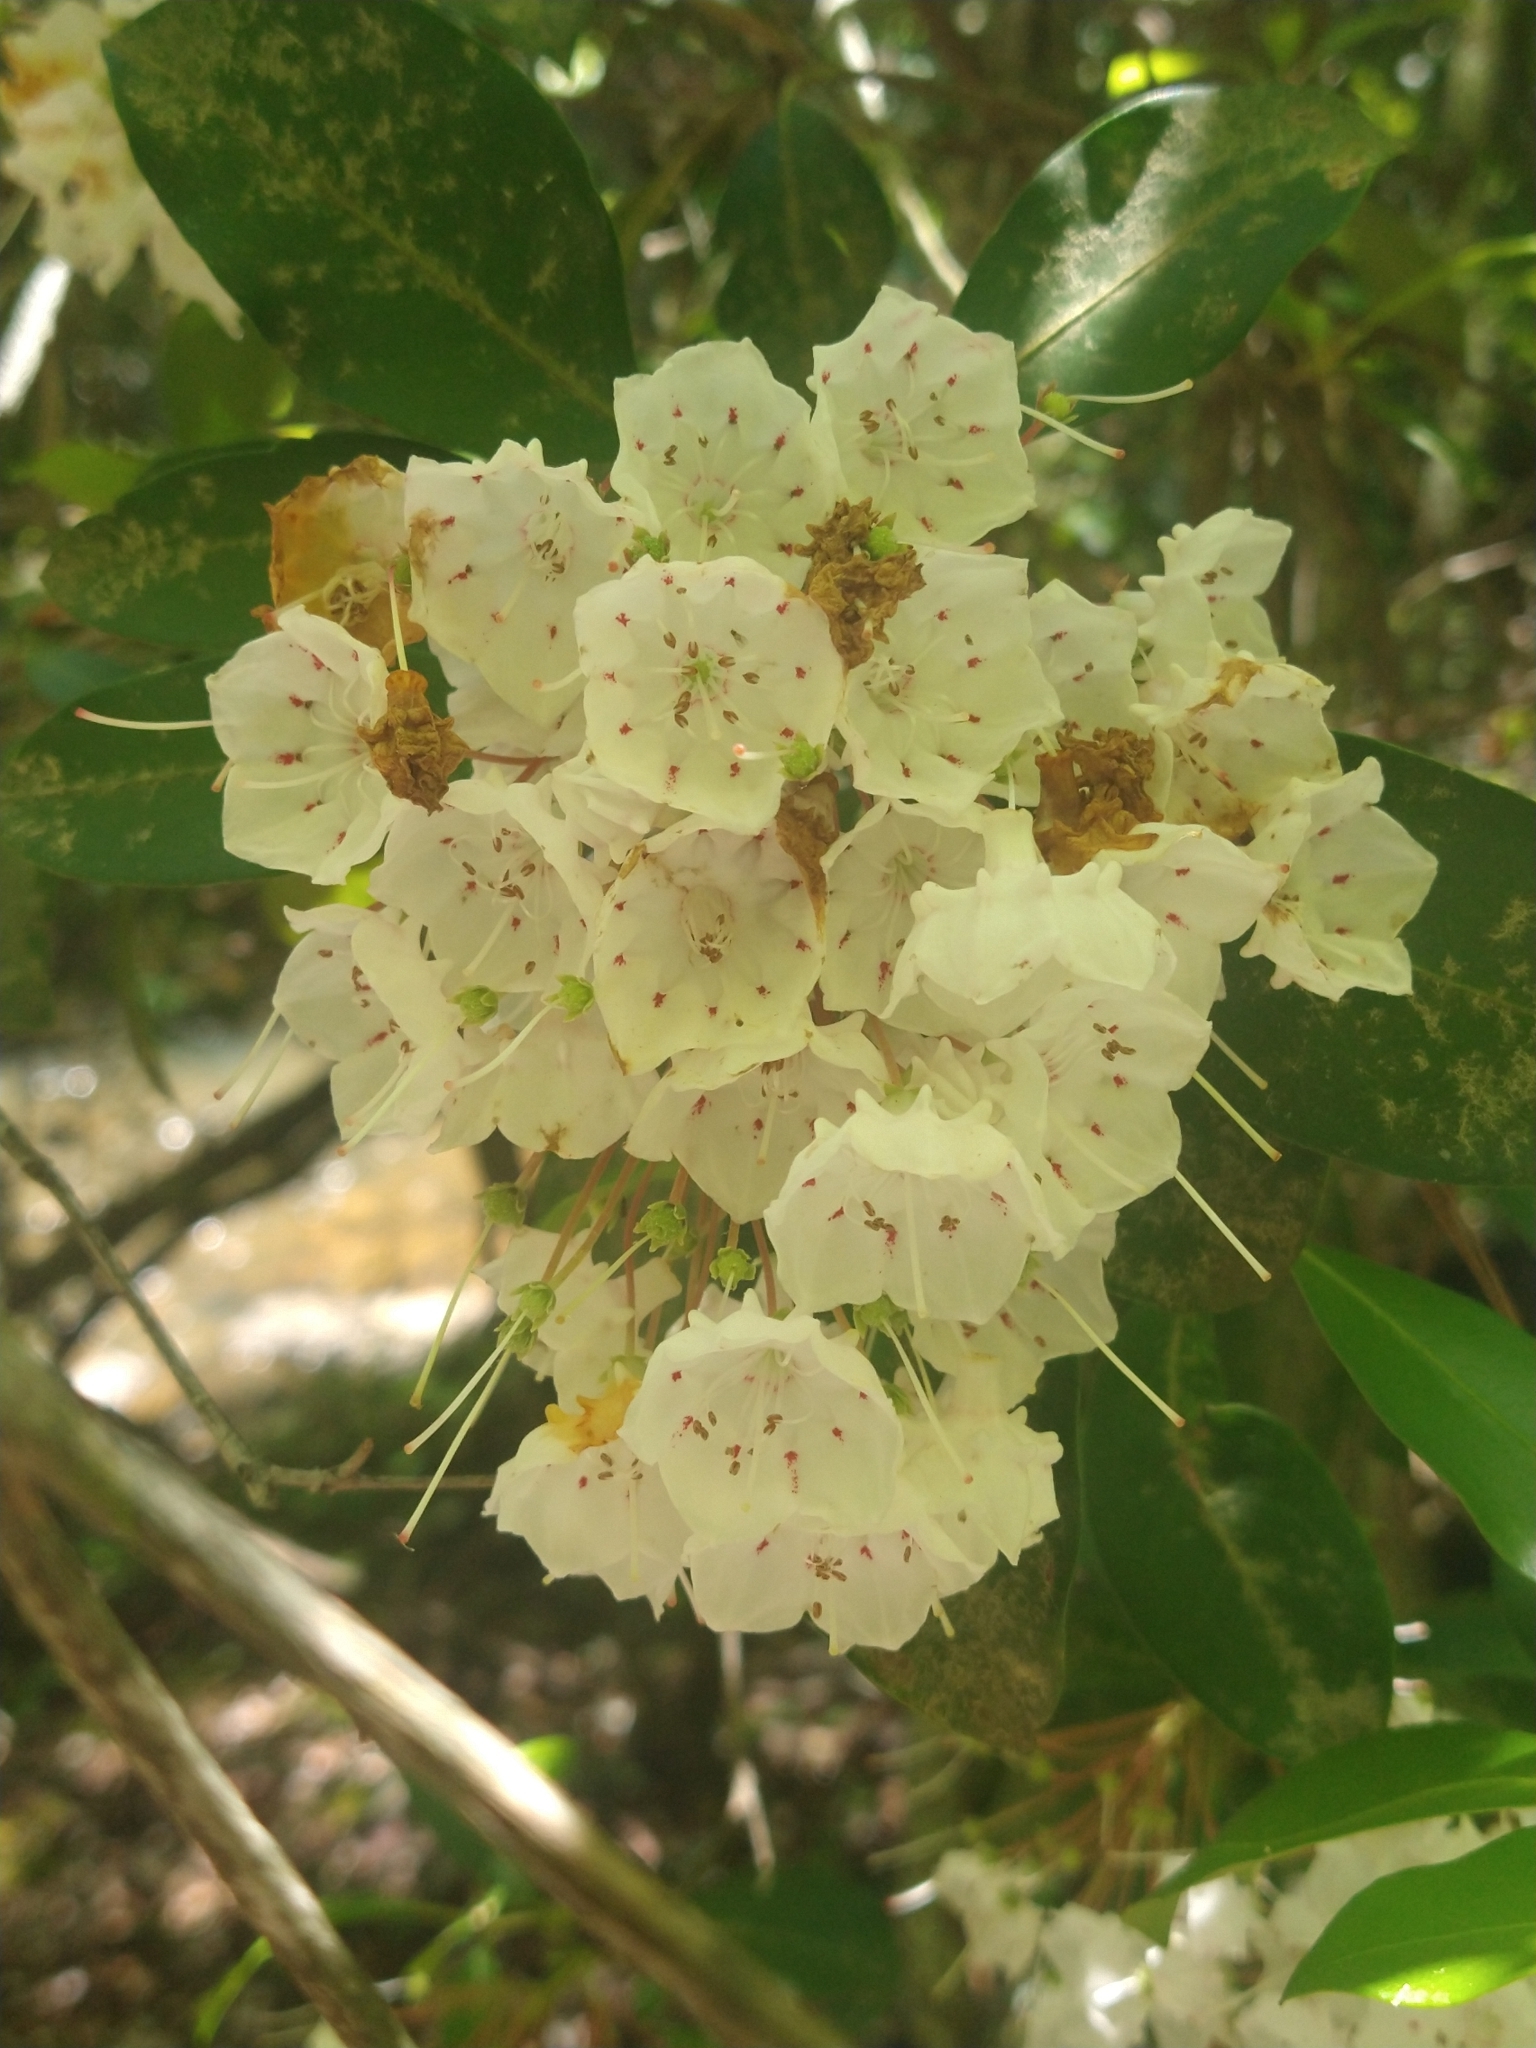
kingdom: Plantae
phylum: Tracheophyta
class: Magnoliopsida
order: Ericales
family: Ericaceae
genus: Kalmia
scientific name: Kalmia latifolia
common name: Mountain-laurel
